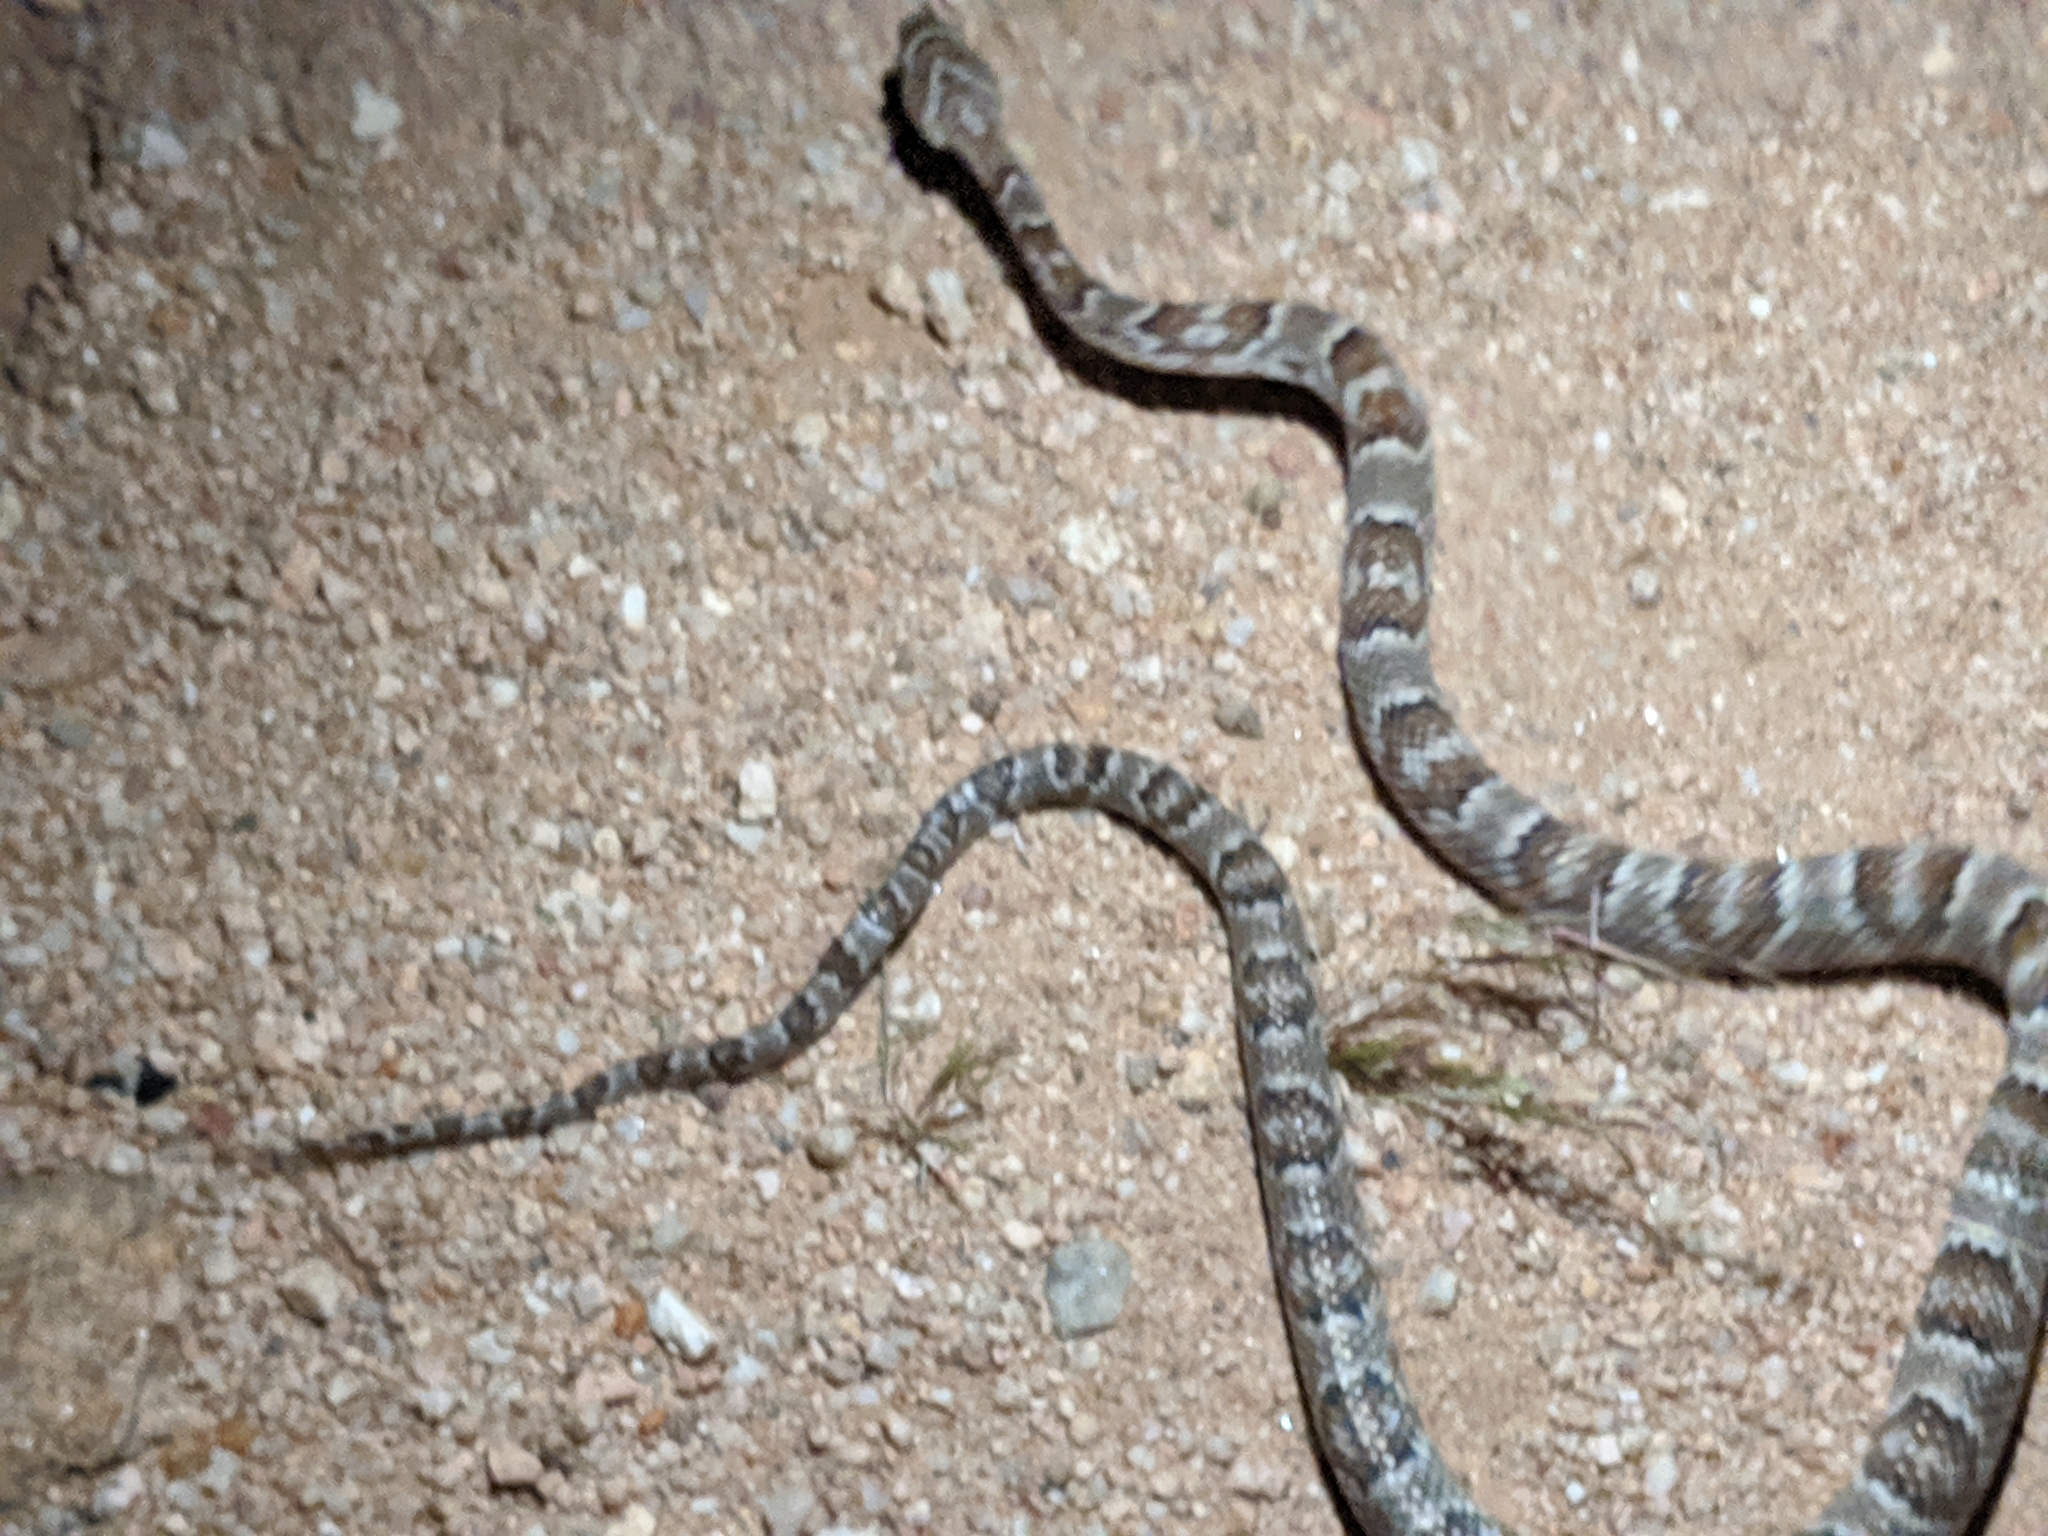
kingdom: Animalia
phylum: Chordata
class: Squamata
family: Colubridae
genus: Trimorphodon
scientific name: Trimorphodon lambda
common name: Sonoran lyre snake
